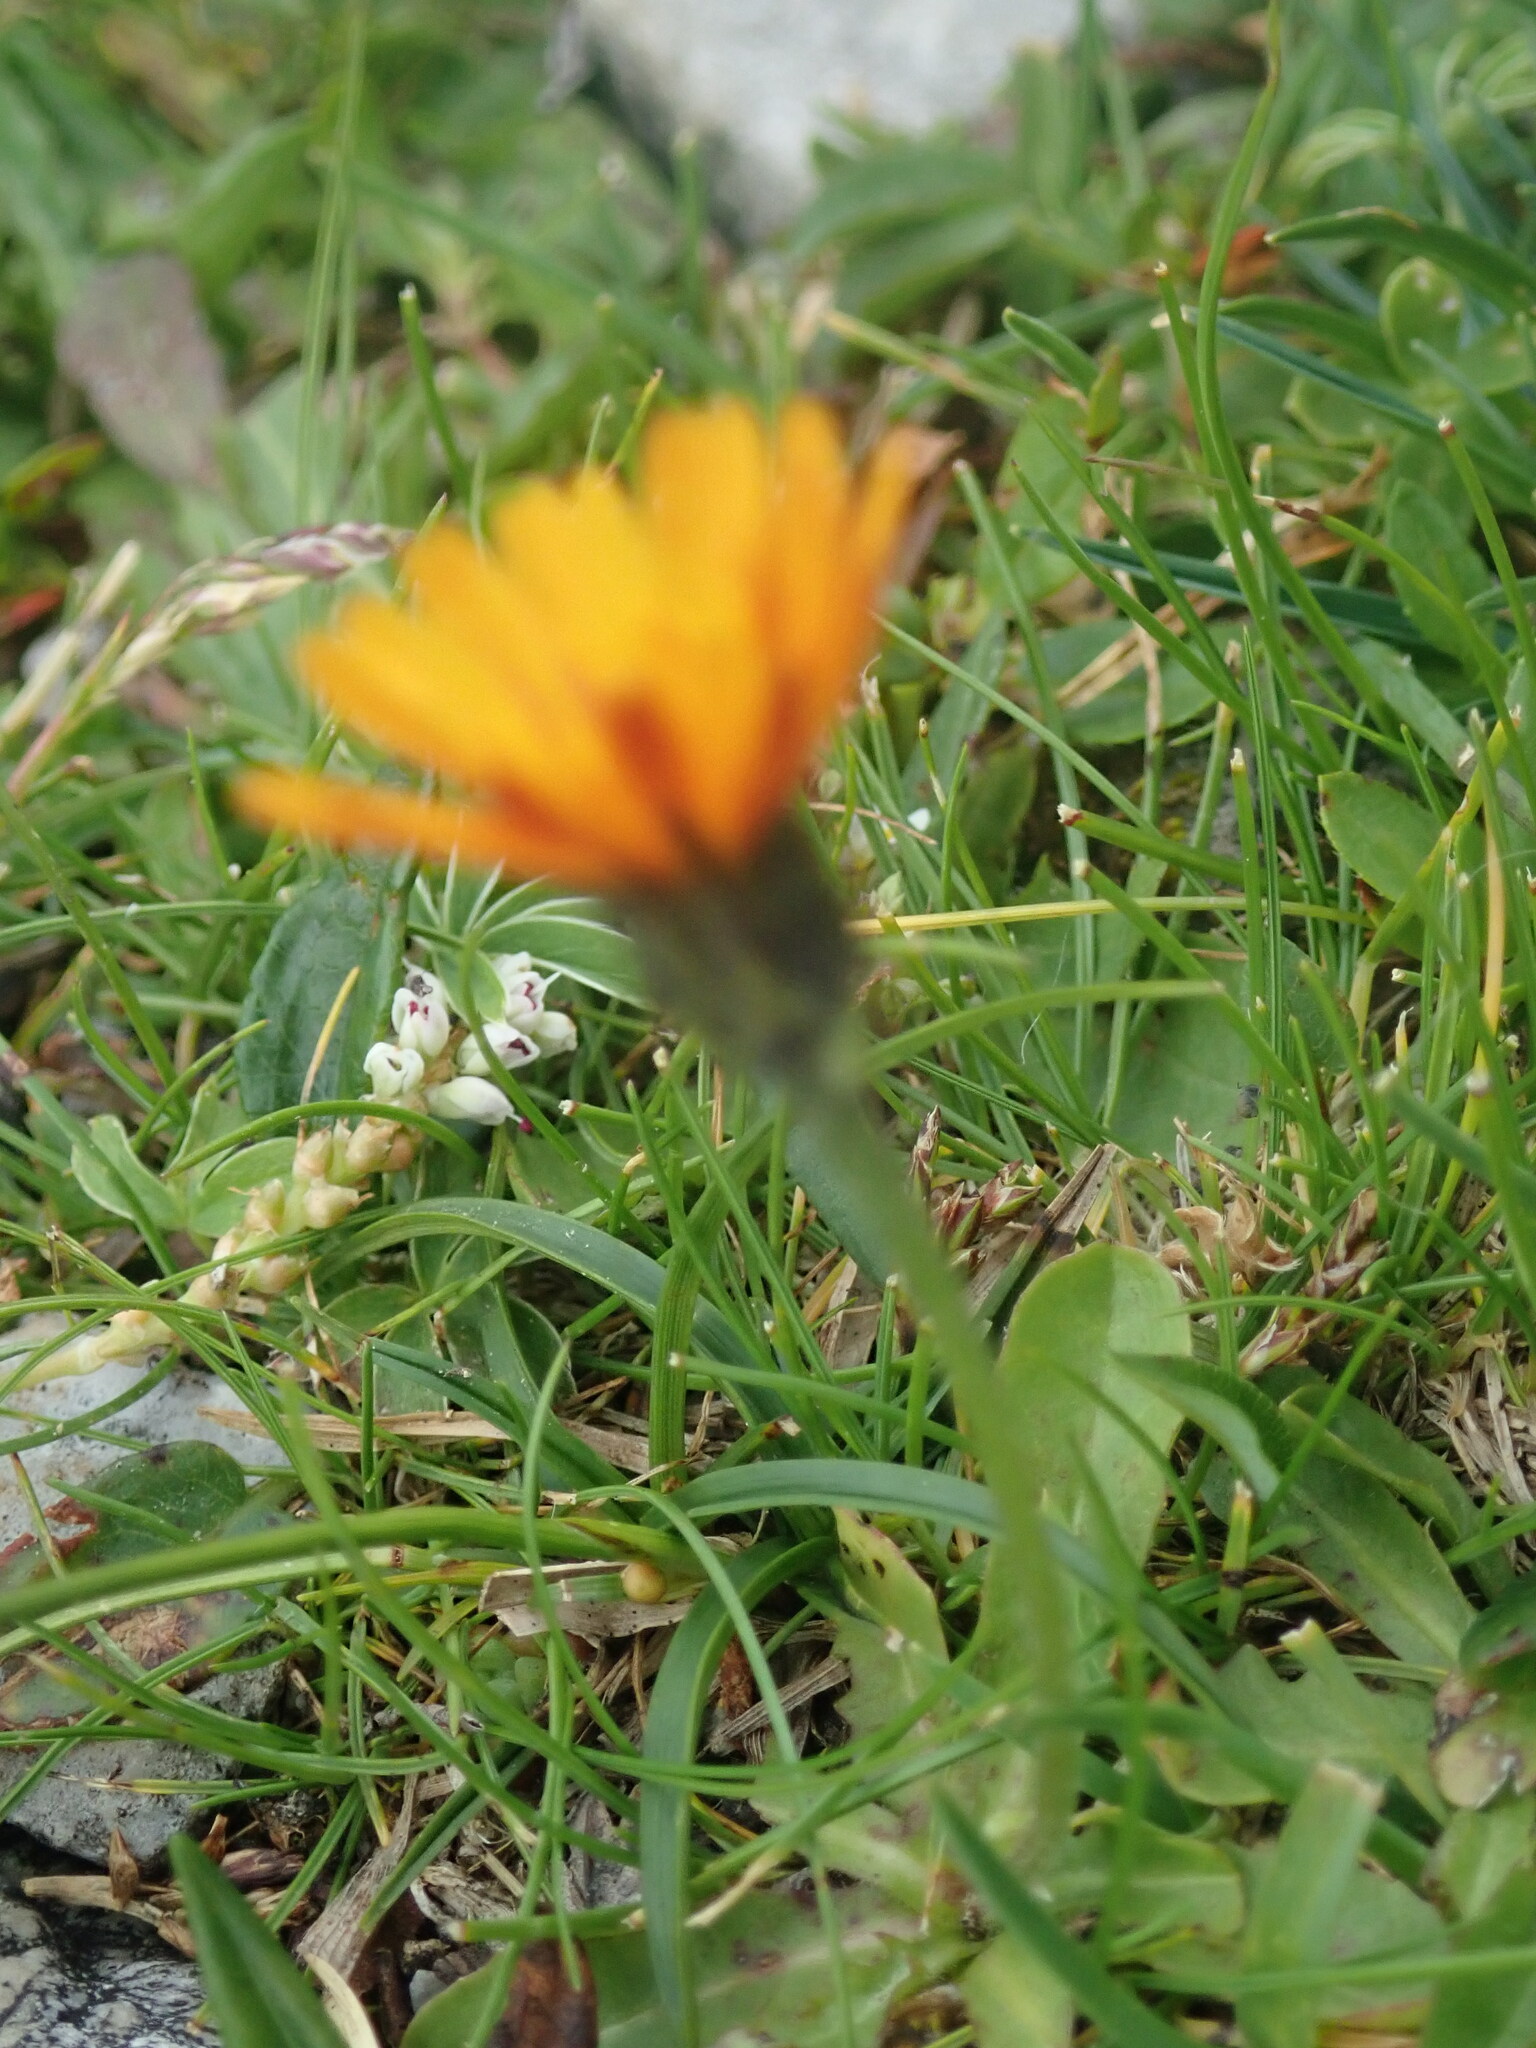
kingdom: Plantae
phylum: Tracheophyta
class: Magnoliopsida
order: Asterales
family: Asteraceae
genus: Crepis
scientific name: Crepis aurea
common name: Golden hawk's-beard
